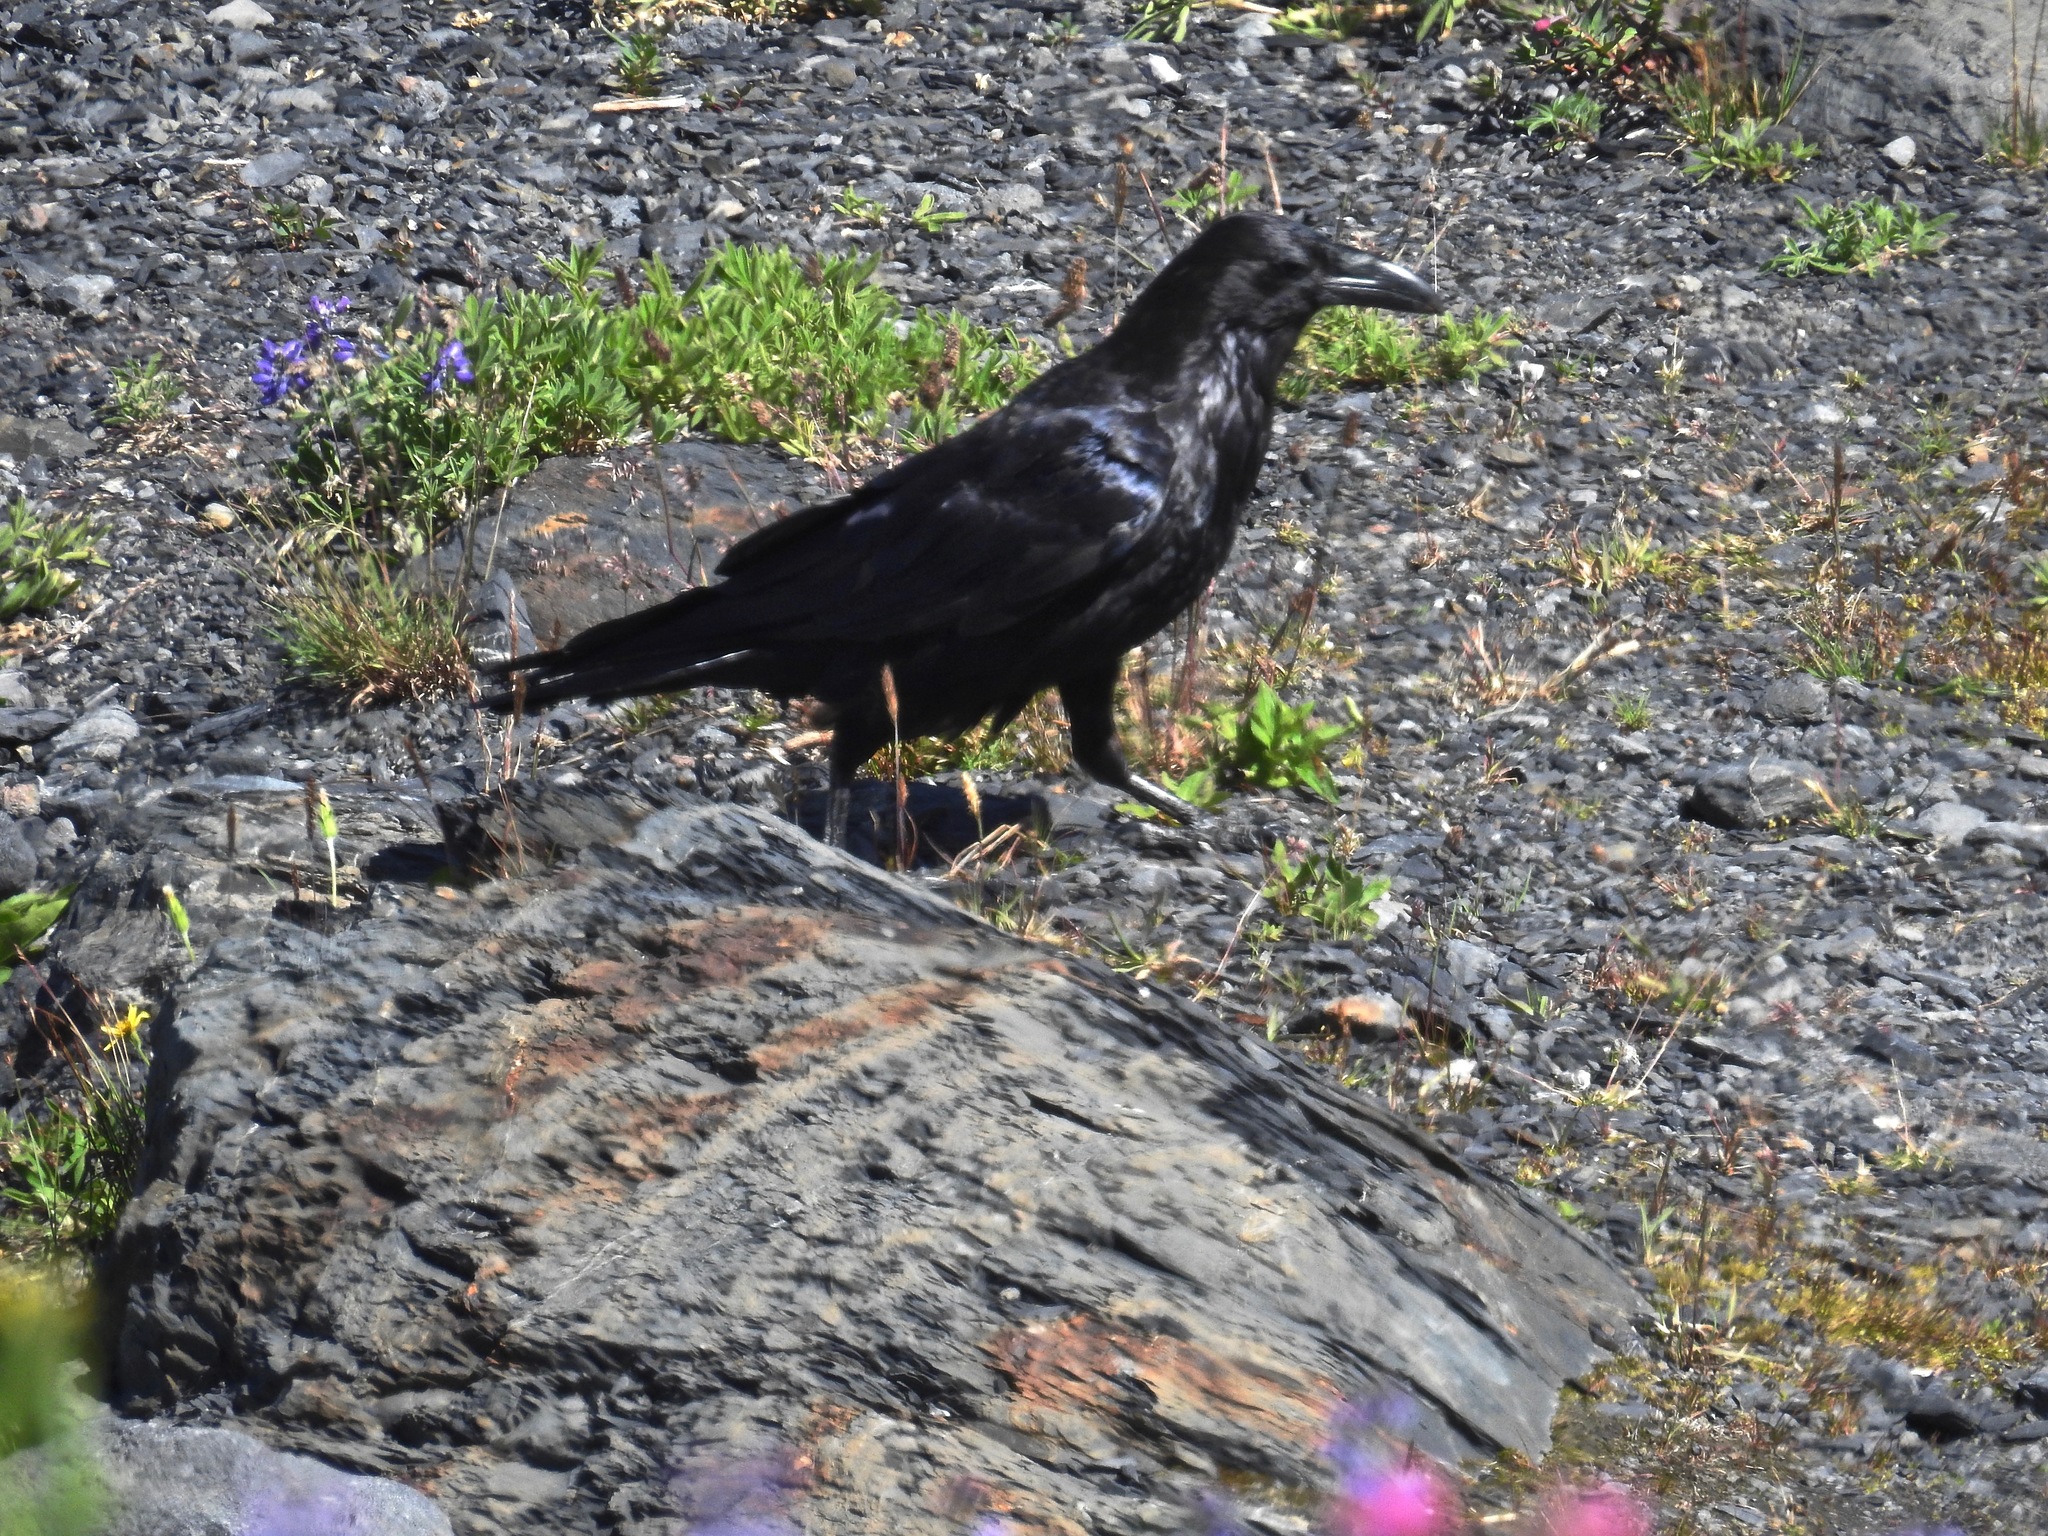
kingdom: Animalia
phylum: Chordata
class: Aves
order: Passeriformes
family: Corvidae
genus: Corvus
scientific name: Corvus corax
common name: Common raven
